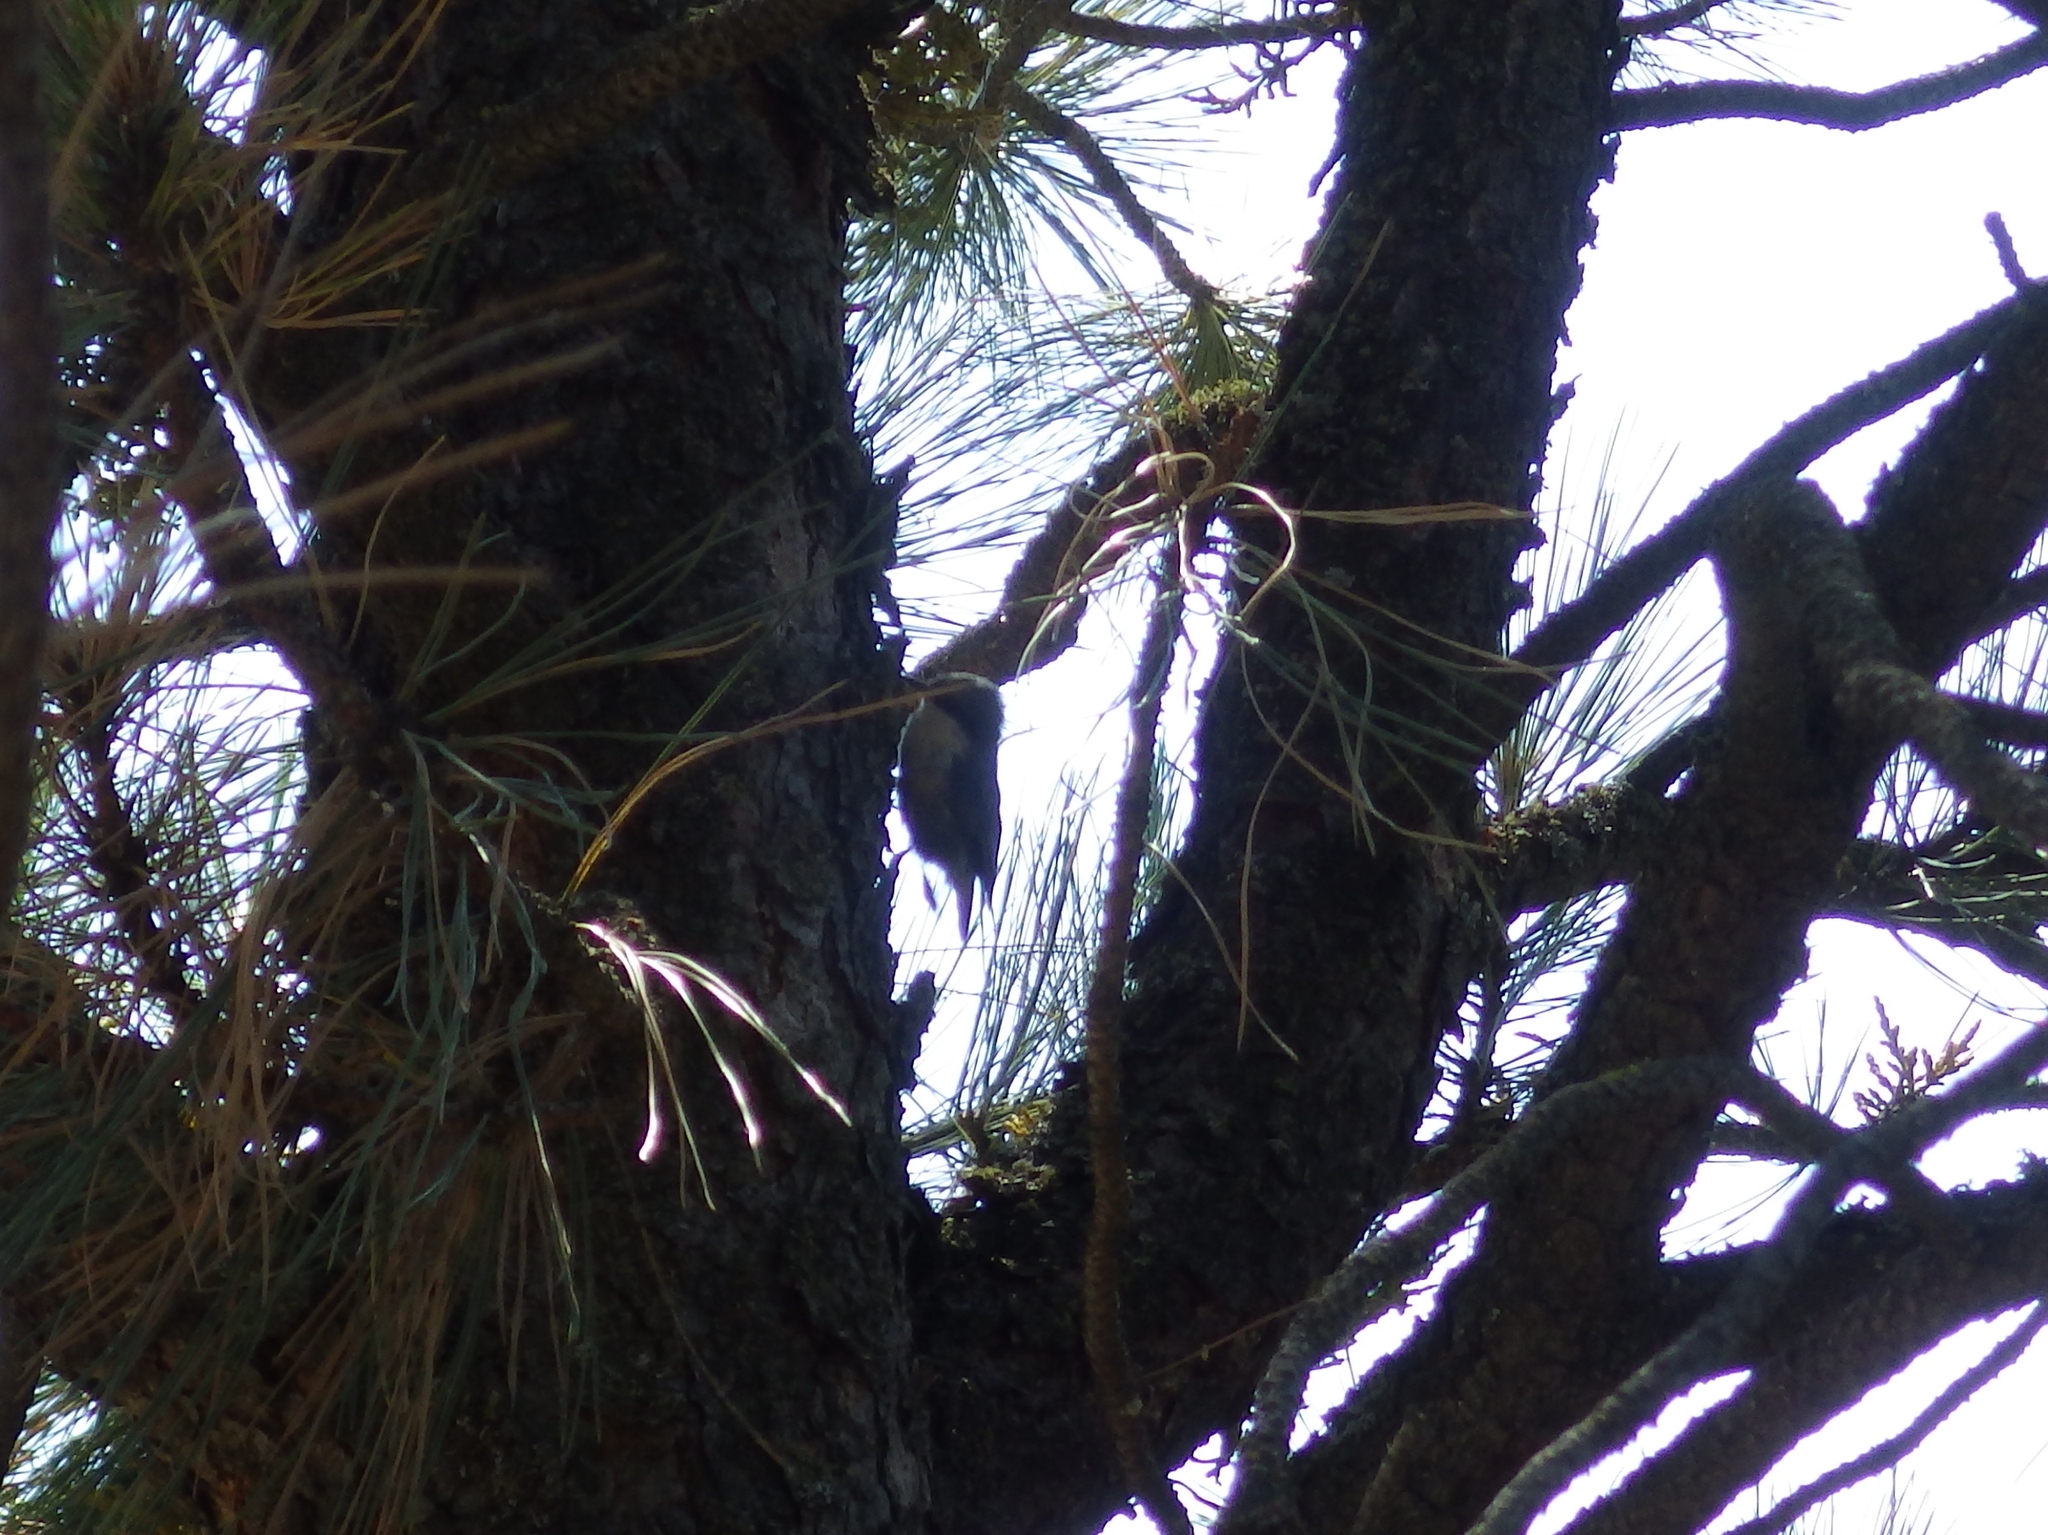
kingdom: Animalia
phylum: Chordata
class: Aves
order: Passeriformes
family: Sittidae
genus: Sitta
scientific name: Sitta pygmaea
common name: Pygmy nuthatch
